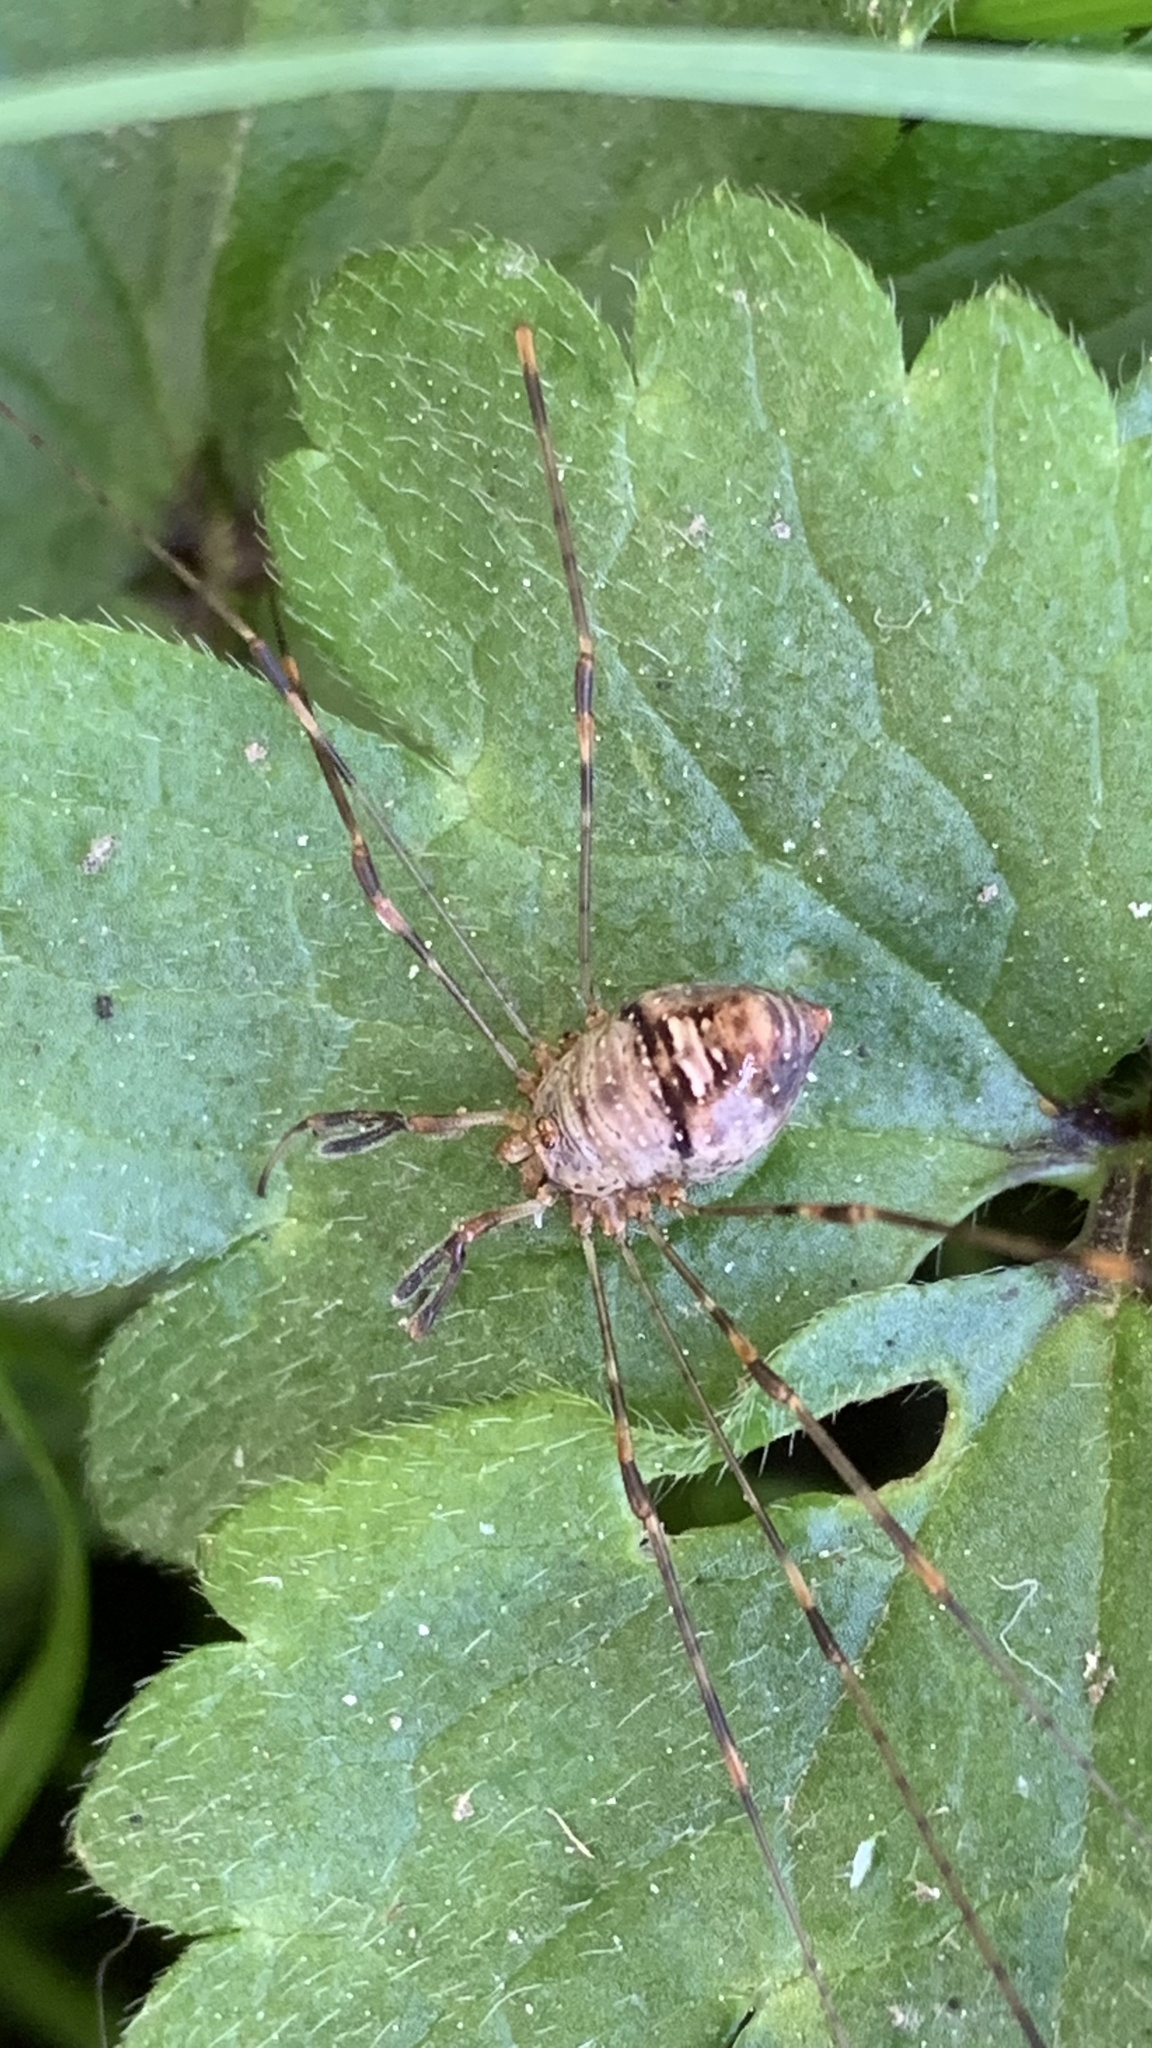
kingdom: Animalia
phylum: Arthropoda
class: Arachnida
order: Opiliones
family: Phalangiidae
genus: Dicranopalpus
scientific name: Dicranopalpus ramosus
